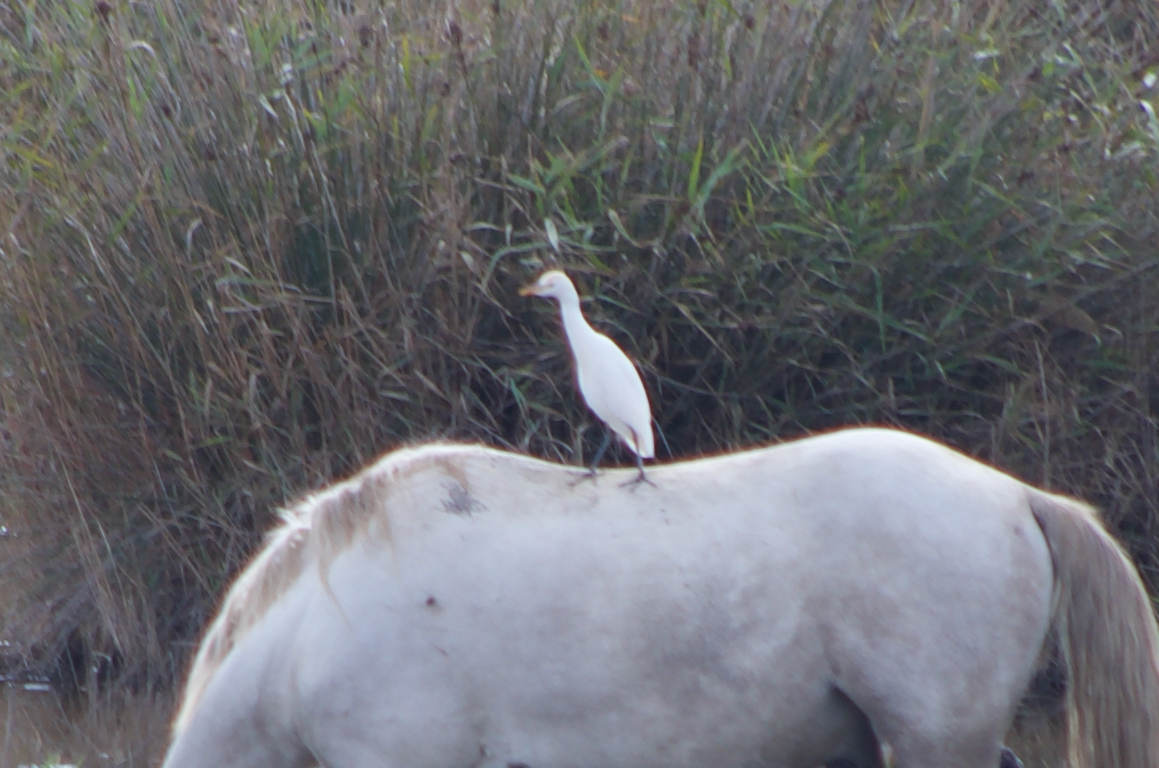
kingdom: Animalia
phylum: Chordata
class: Aves
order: Pelecaniformes
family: Ardeidae
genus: Bubulcus
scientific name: Bubulcus ibis
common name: Cattle egret
